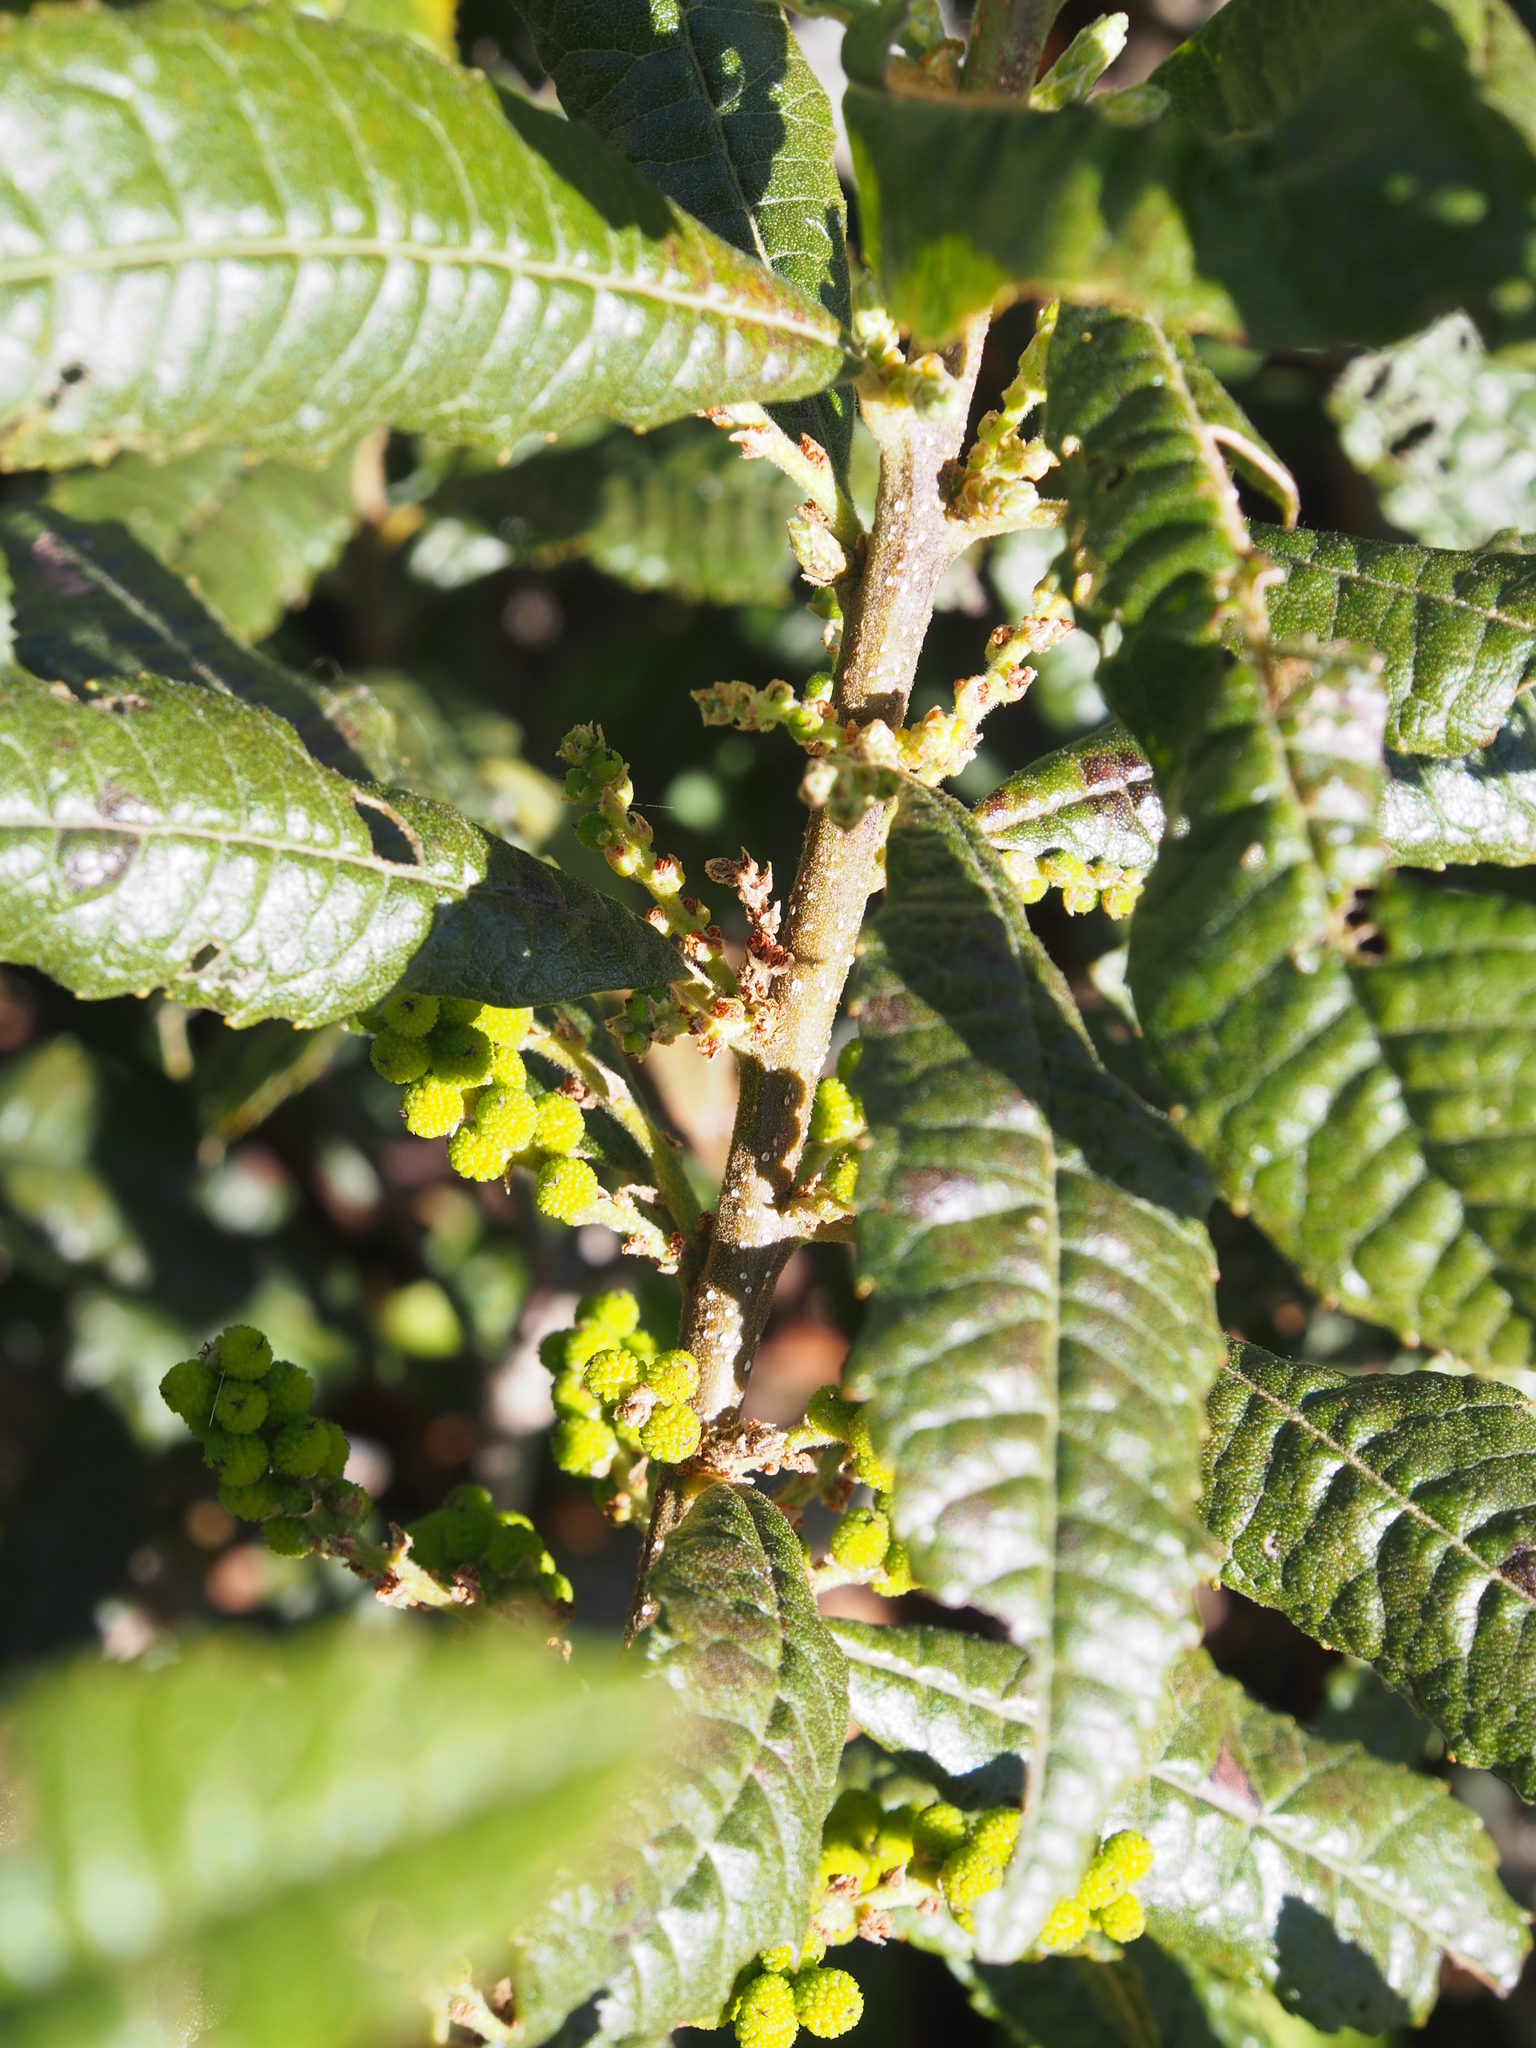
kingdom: Plantae
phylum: Tracheophyta
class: Magnoliopsida
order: Fagales
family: Myricaceae
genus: Morella
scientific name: Morella pubescens
